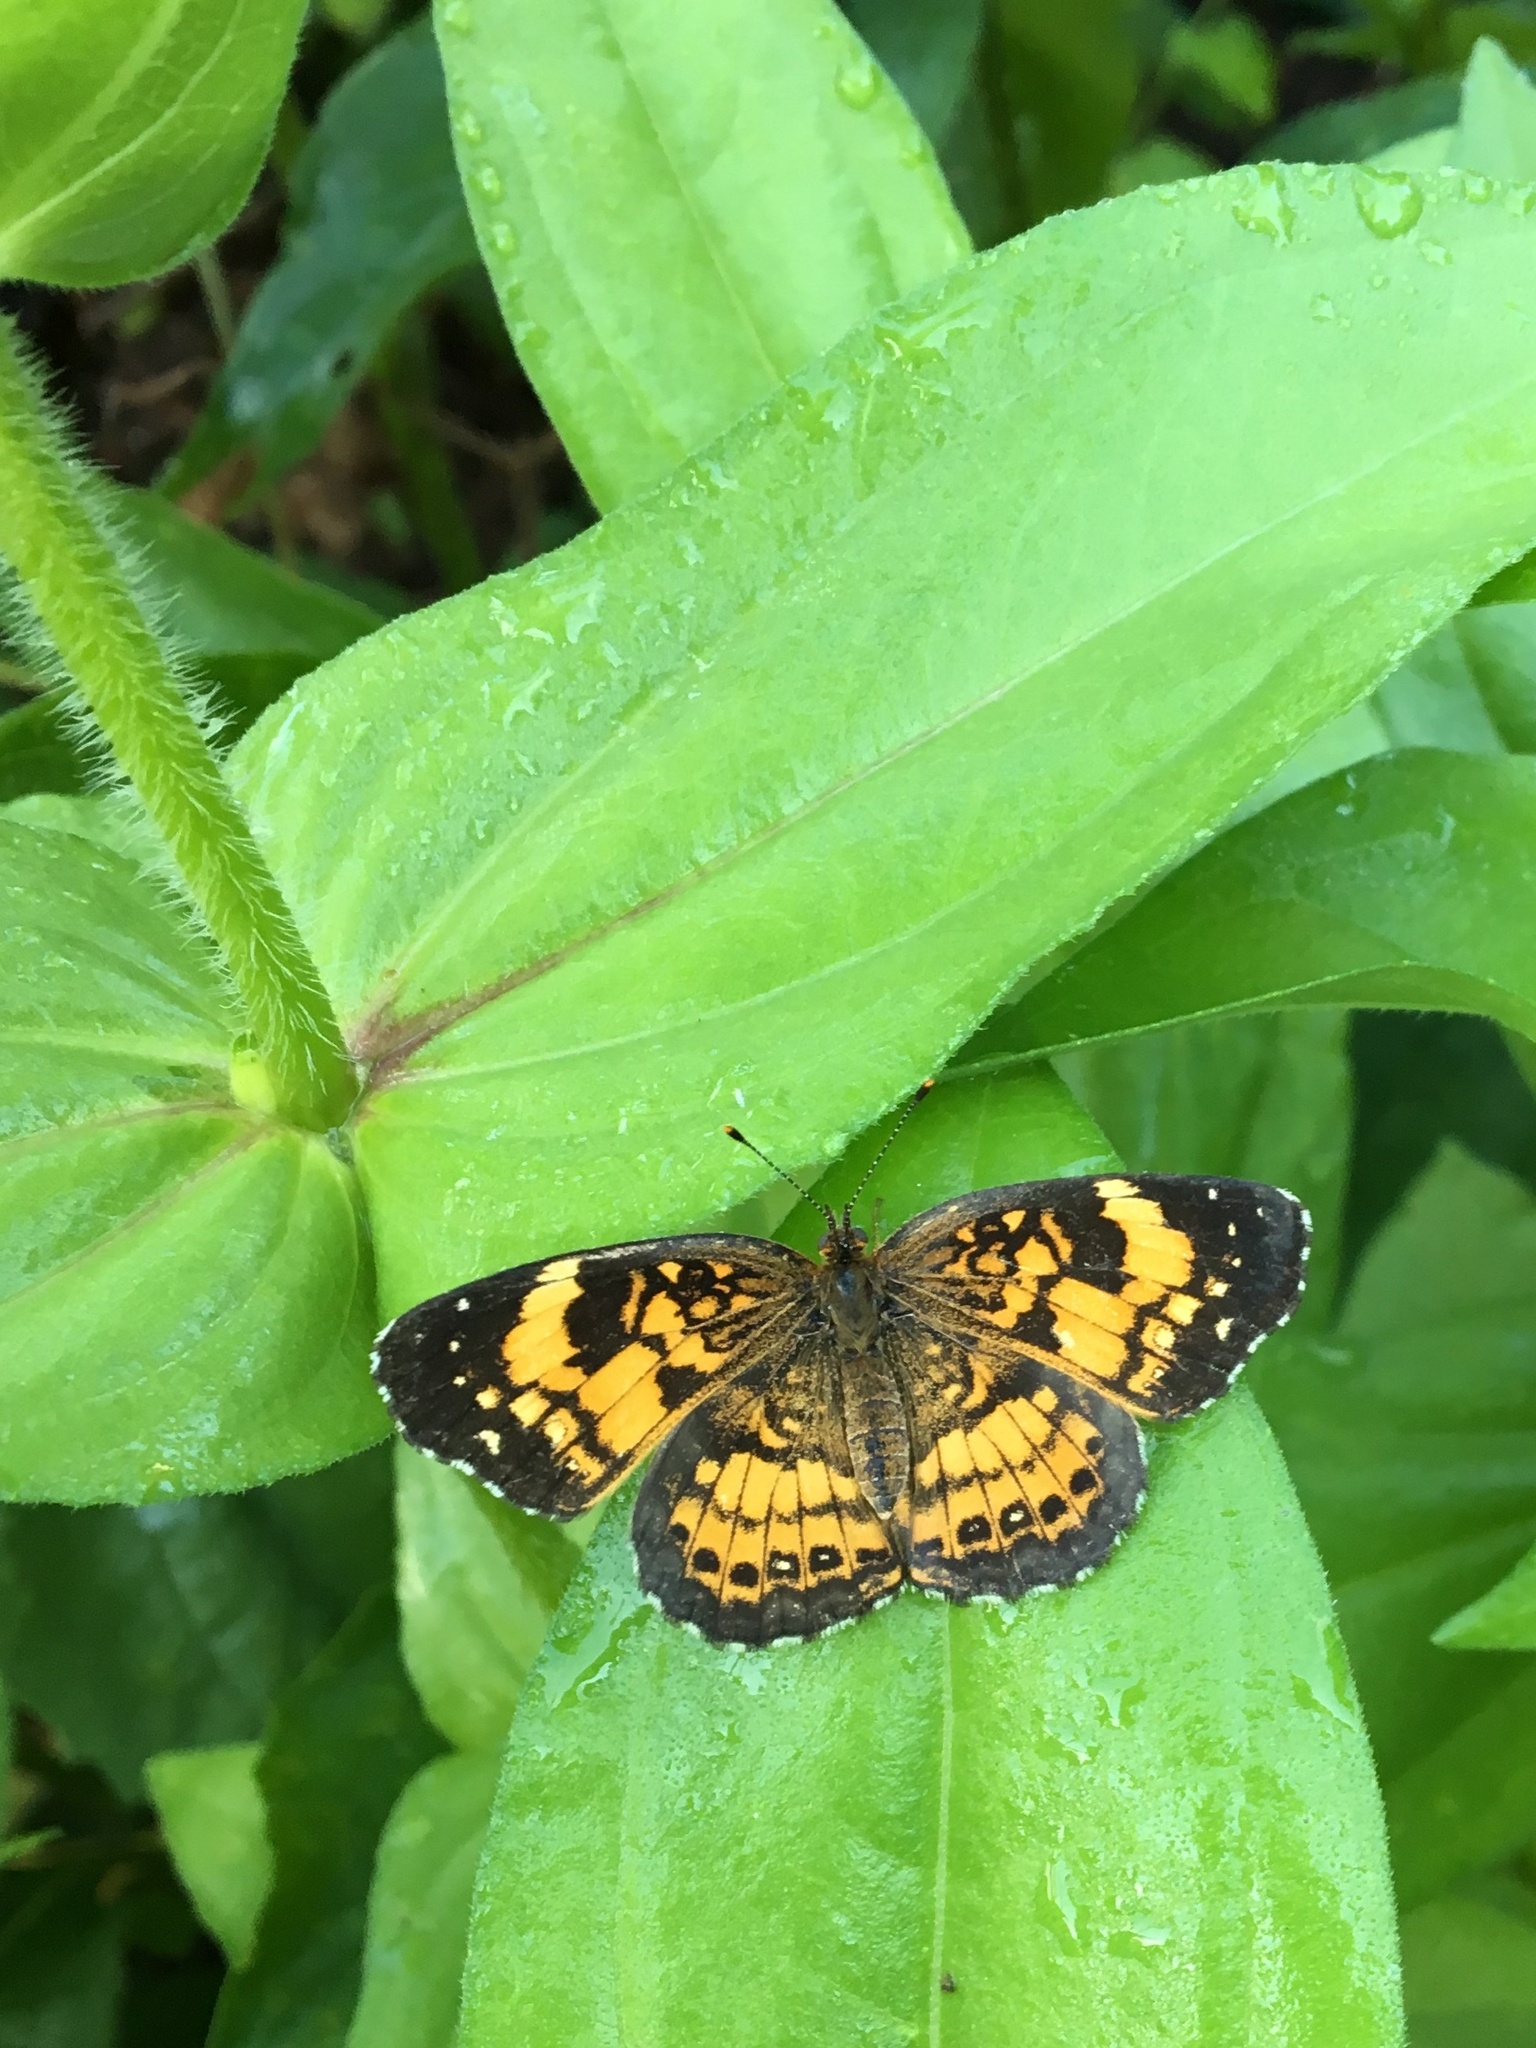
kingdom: Animalia
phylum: Arthropoda
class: Insecta
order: Lepidoptera
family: Nymphalidae
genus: Chlosyne
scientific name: Chlosyne nycteis
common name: Silvery checkerspot
